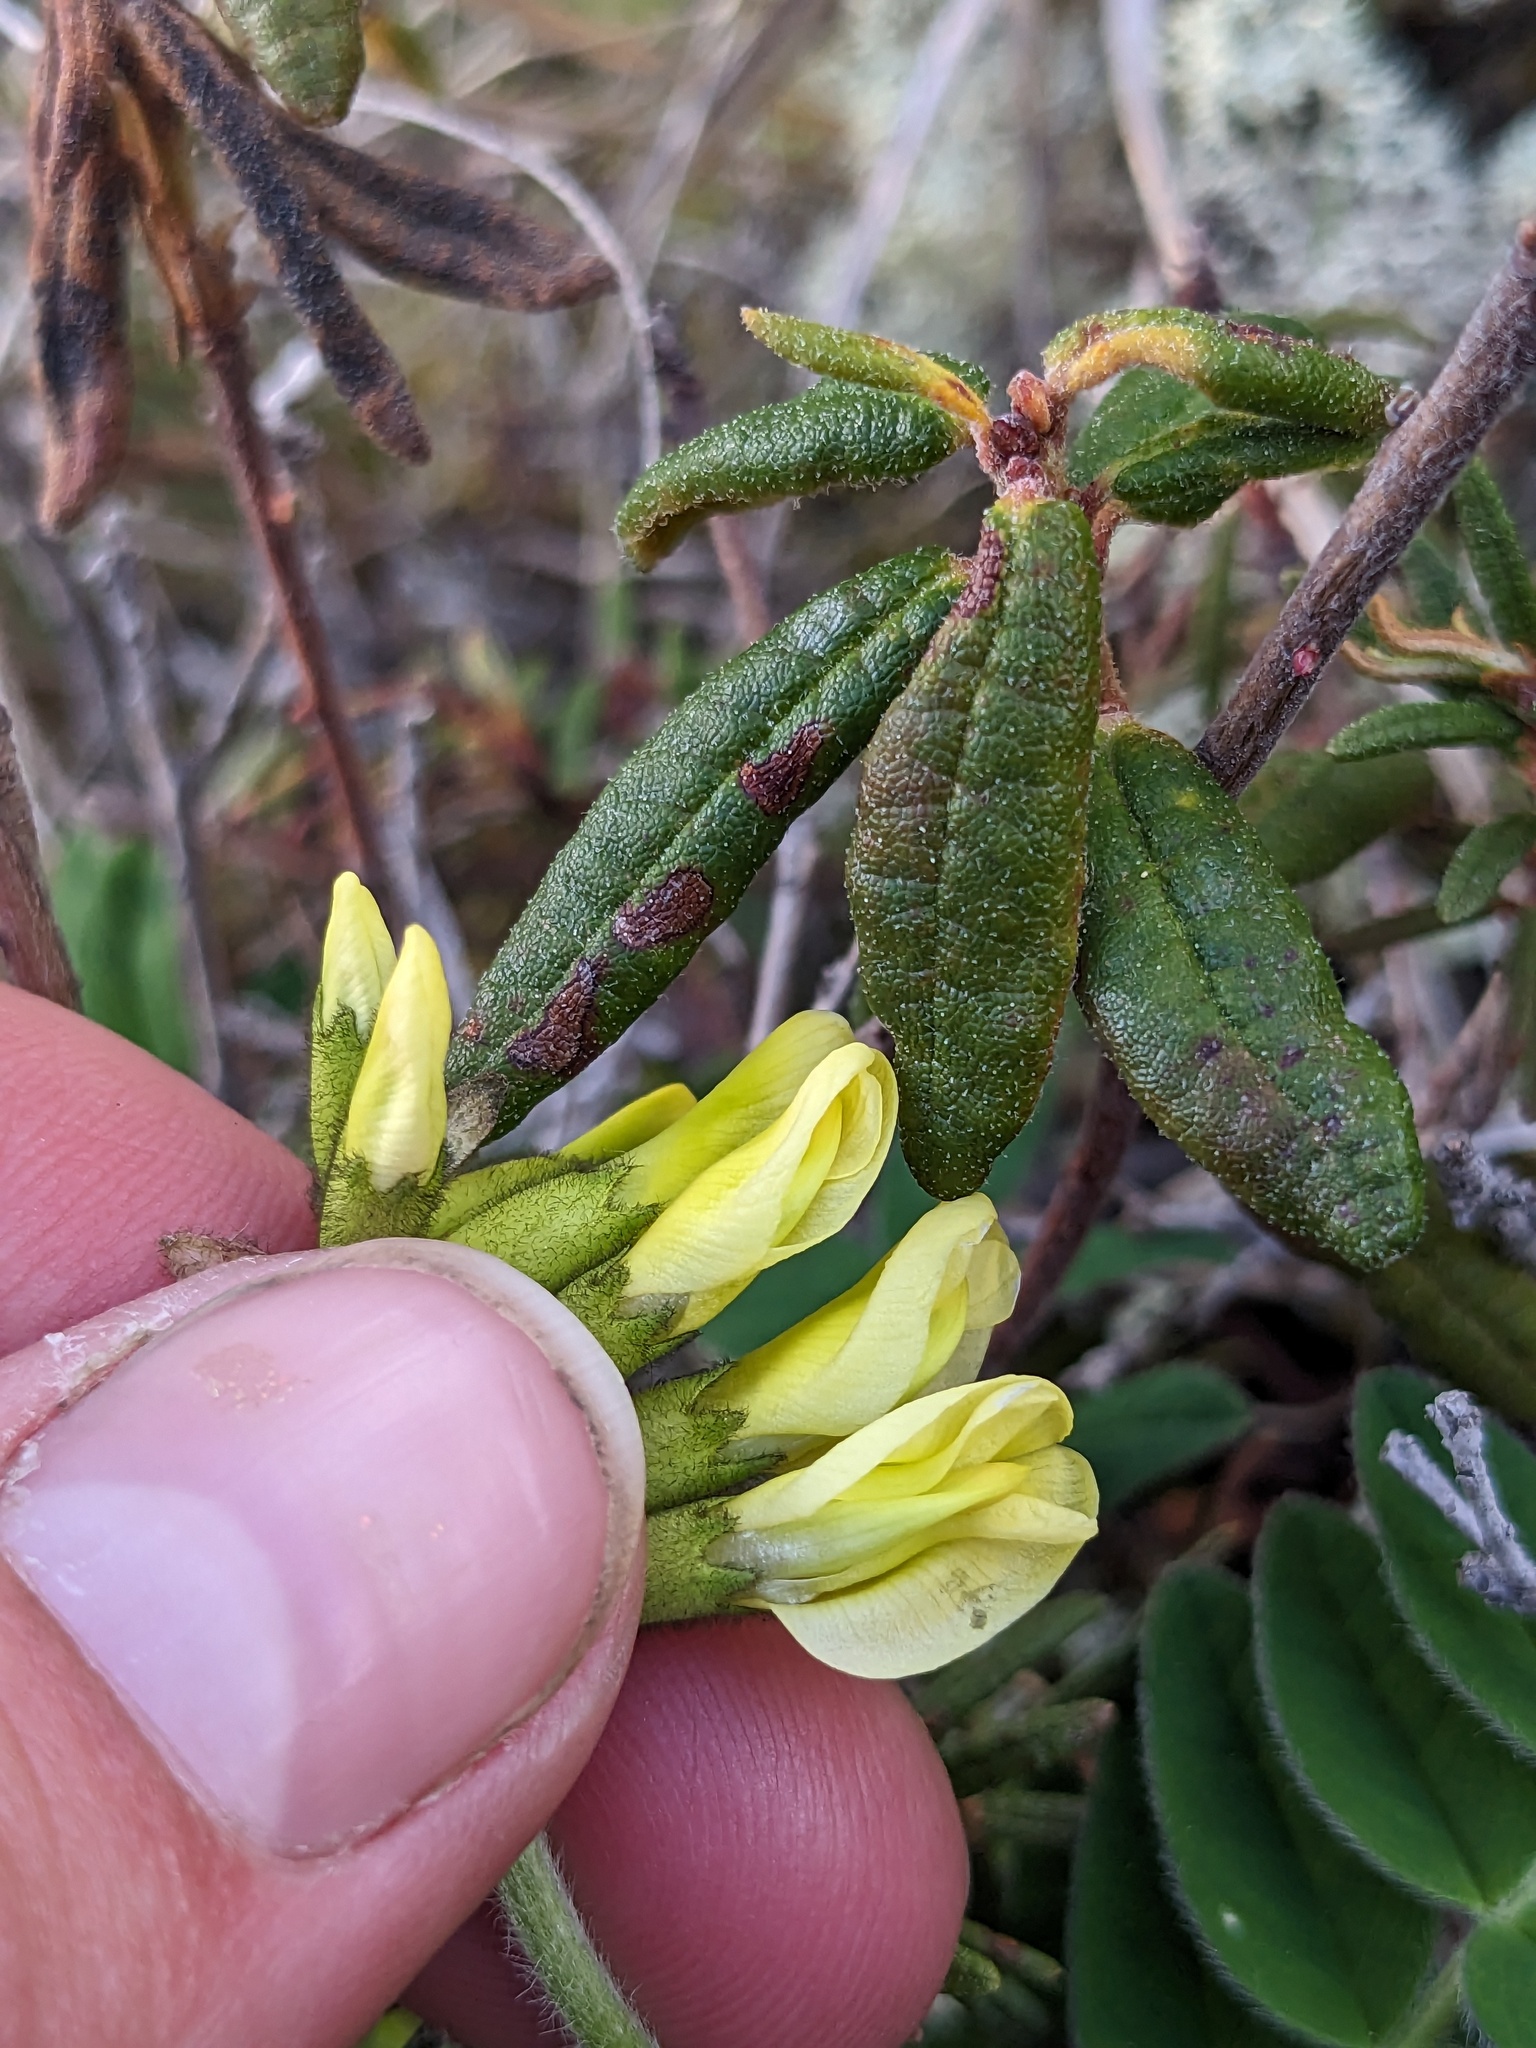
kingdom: Plantae
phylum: Tracheophyta
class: Magnoliopsida
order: Fabales
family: Fabaceae
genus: Astragalus
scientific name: Astragalus umbellatus
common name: Tundra milk-vetch
